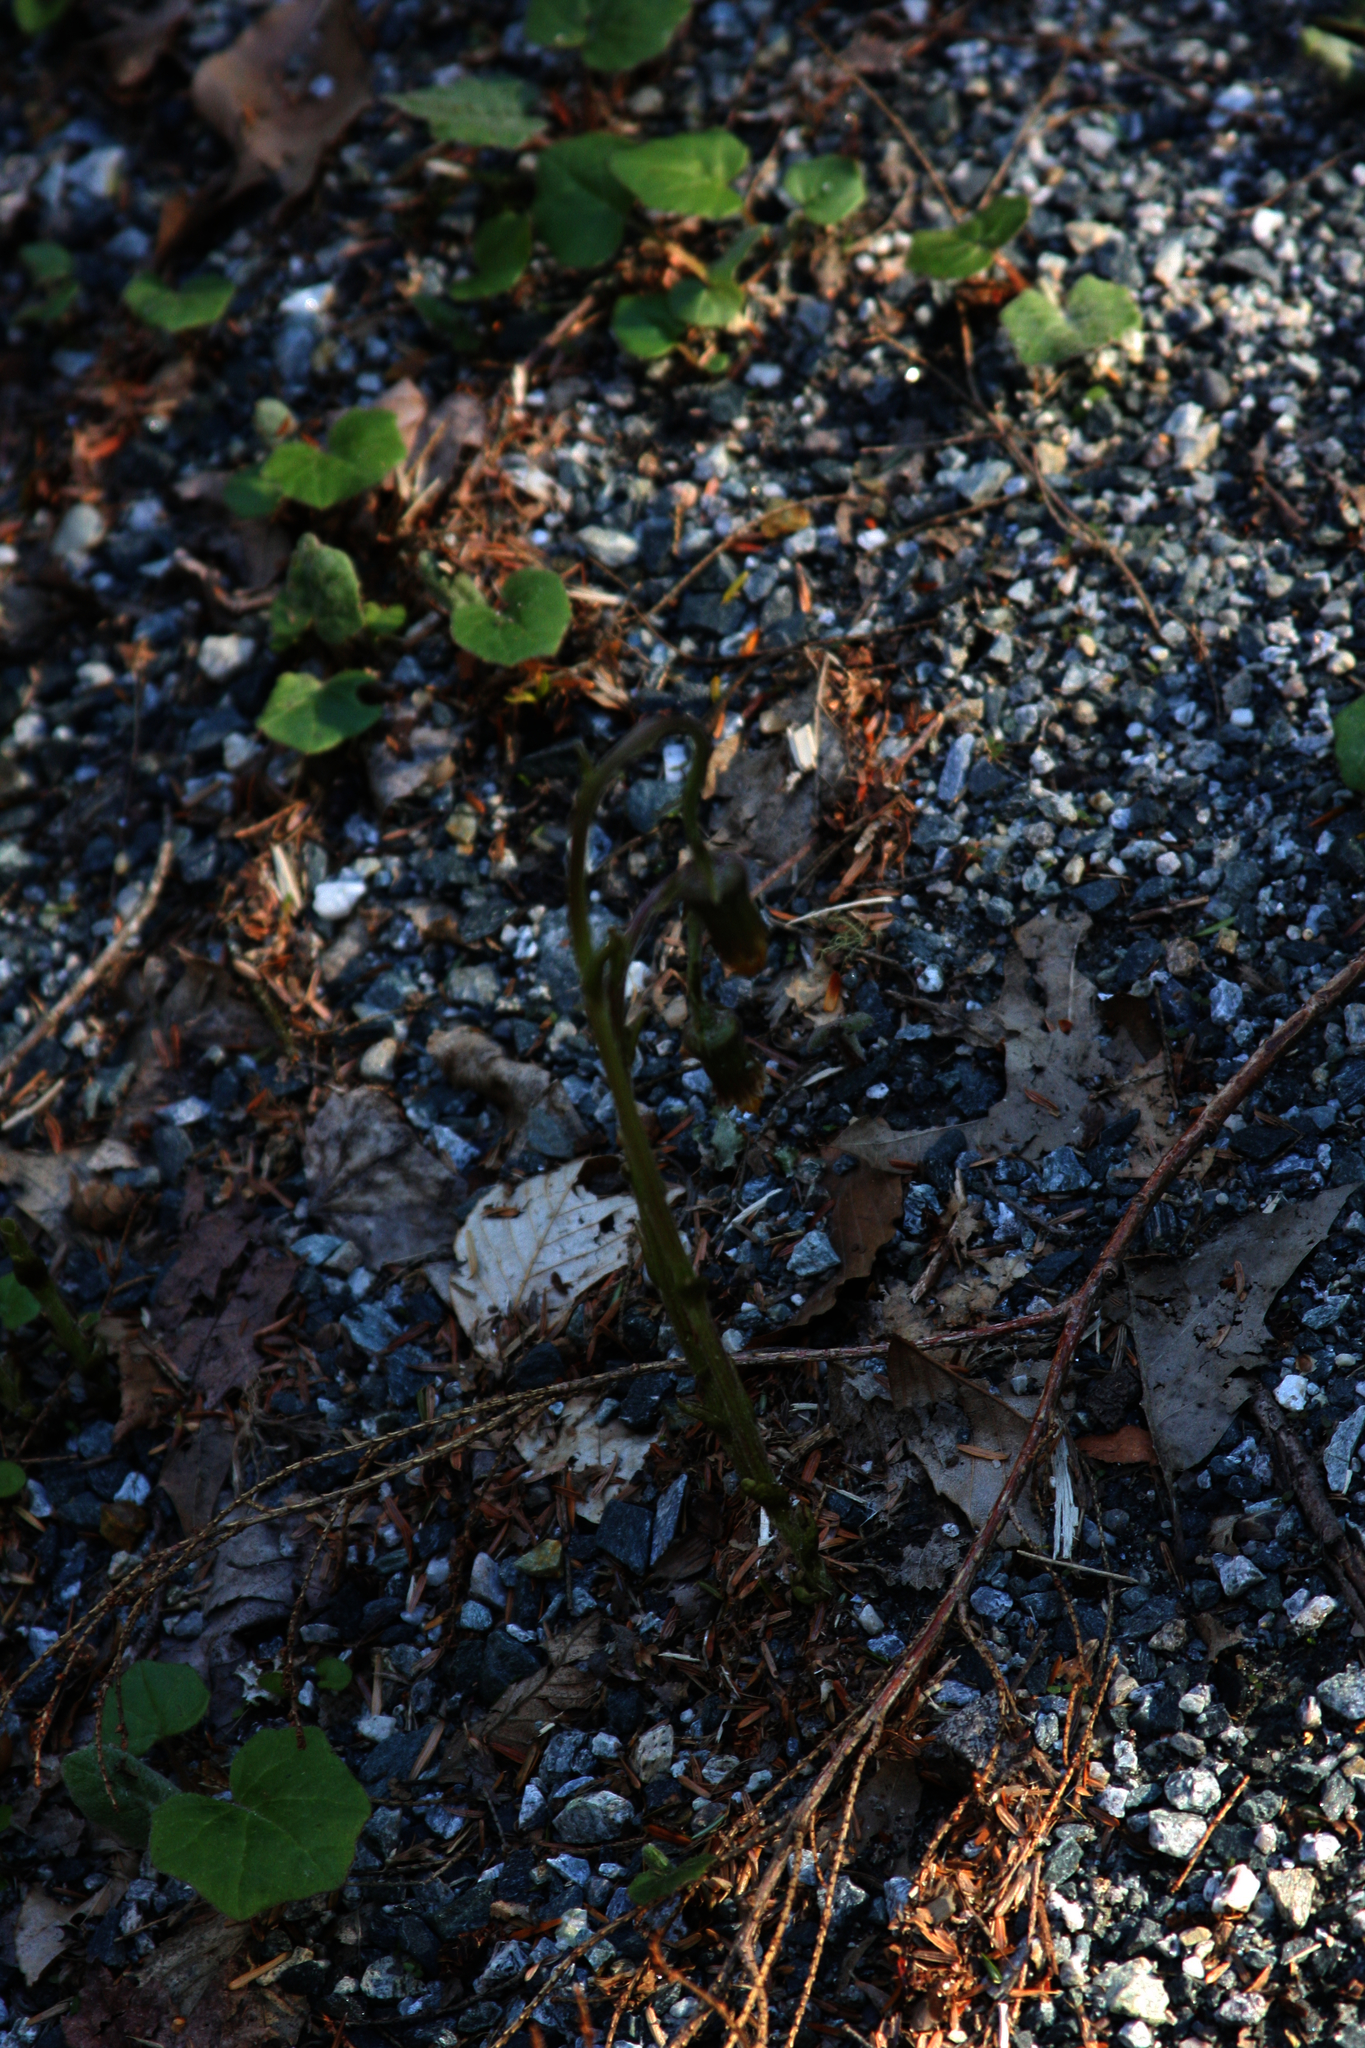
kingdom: Plantae
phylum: Tracheophyta
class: Magnoliopsida
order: Asterales
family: Asteraceae
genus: Tussilago
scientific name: Tussilago farfara
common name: Coltsfoot
